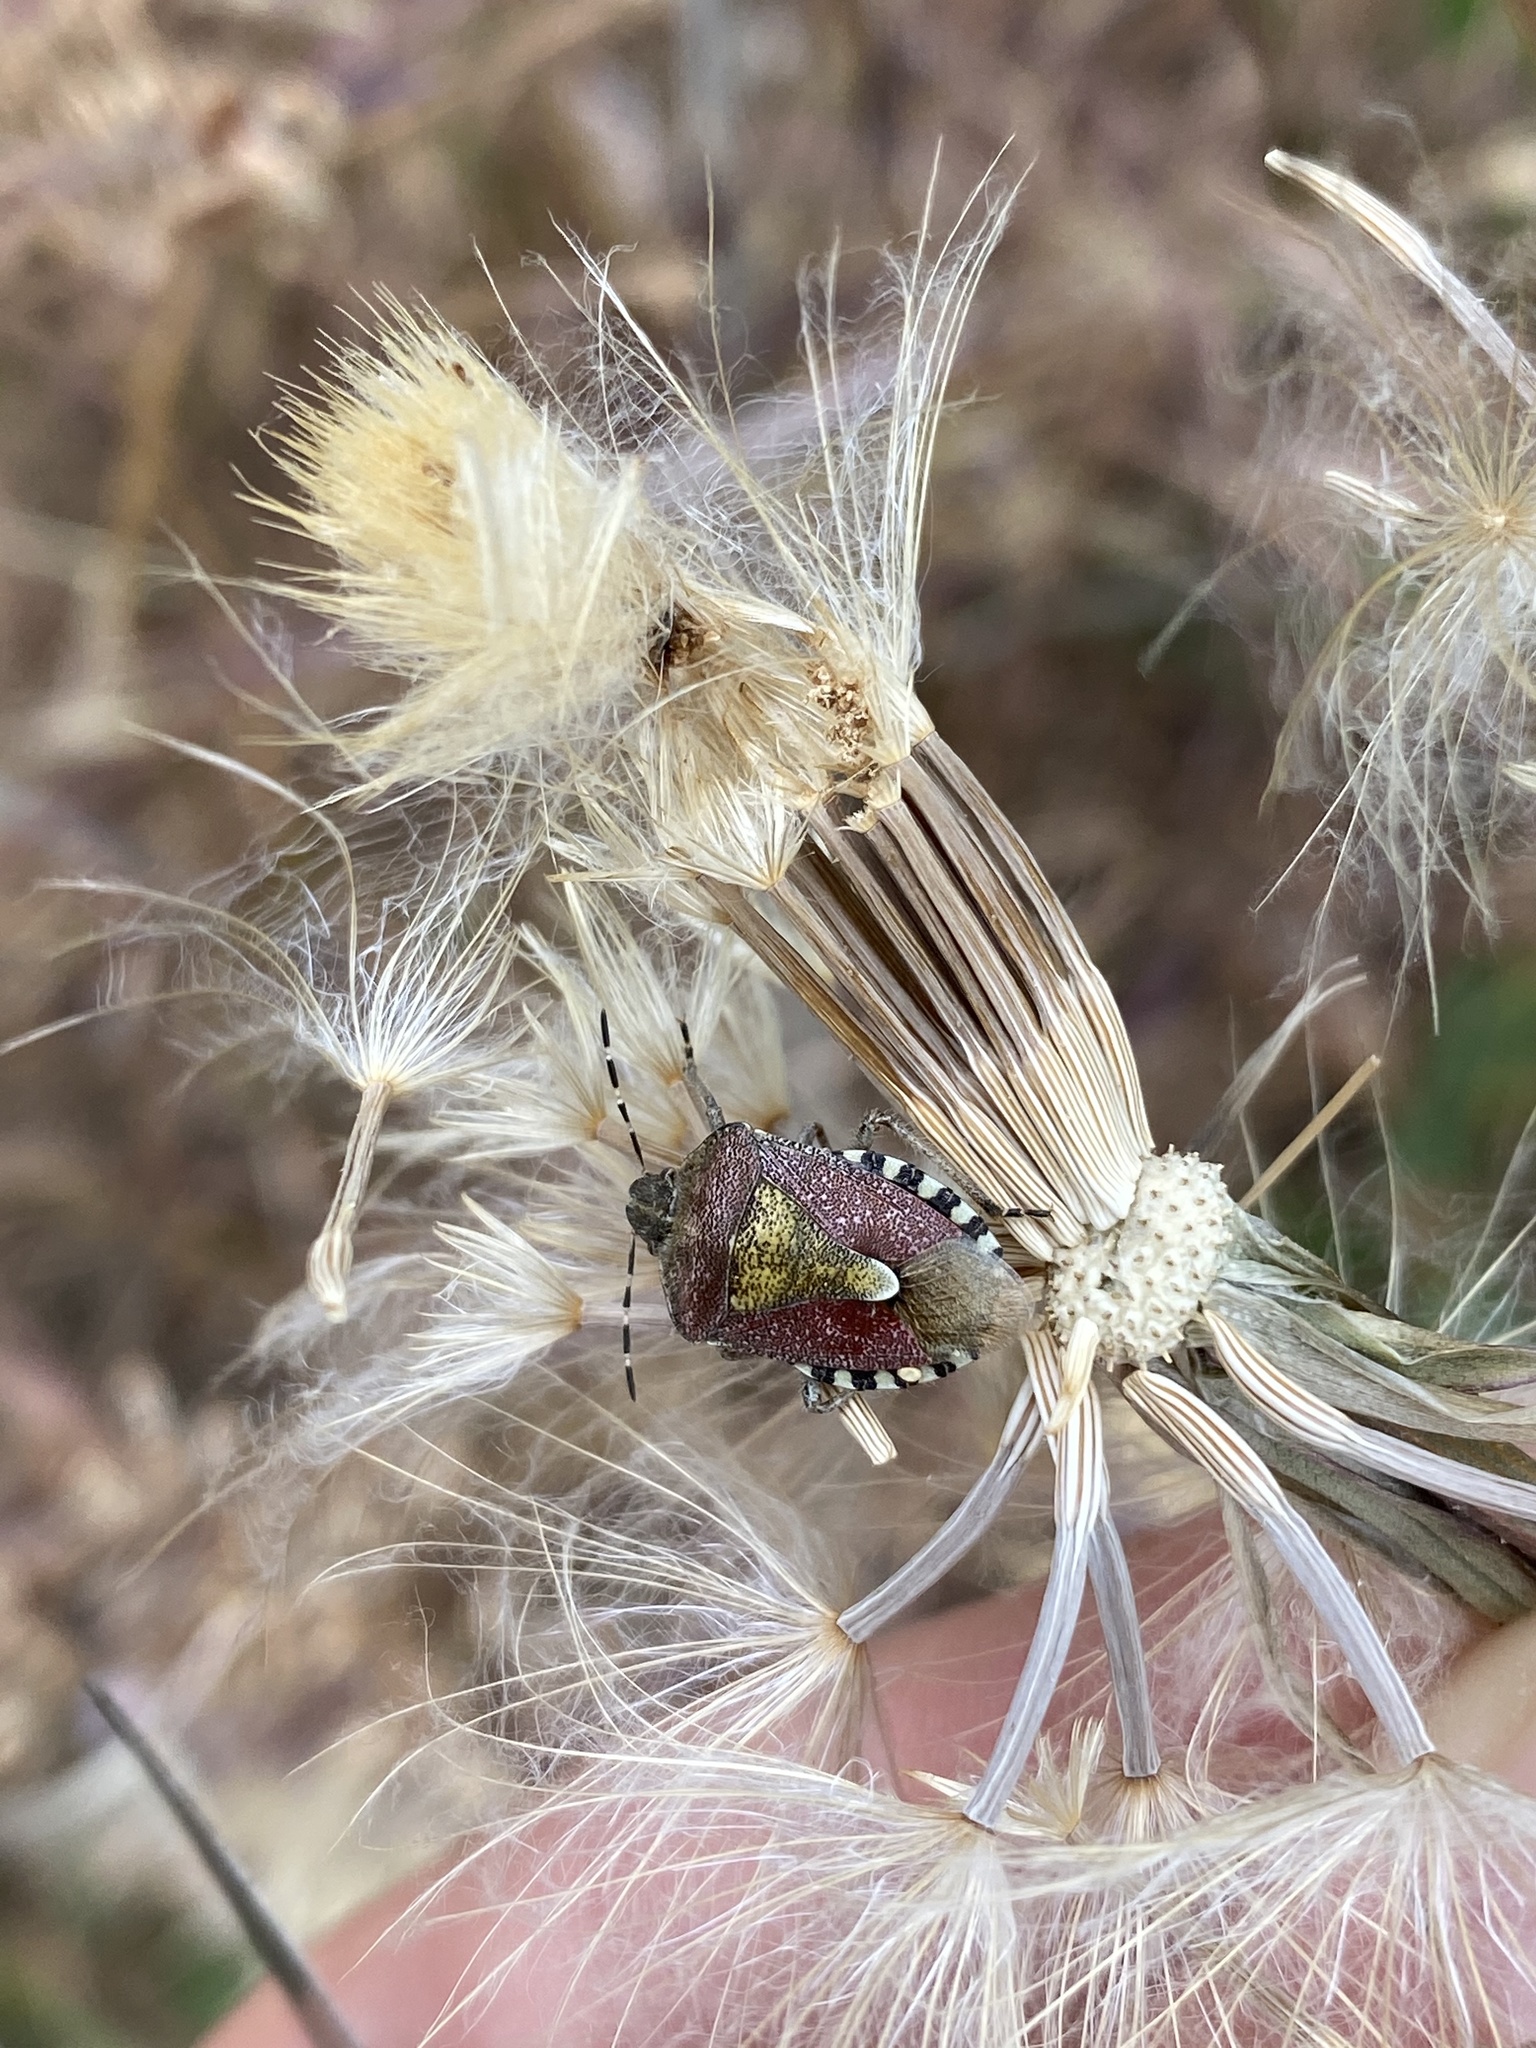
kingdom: Animalia
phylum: Arthropoda
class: Insecta
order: Hemiptera
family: Pentatomidae
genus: Dolycoris
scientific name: Dolycoris baccarum
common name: Sloe bug
